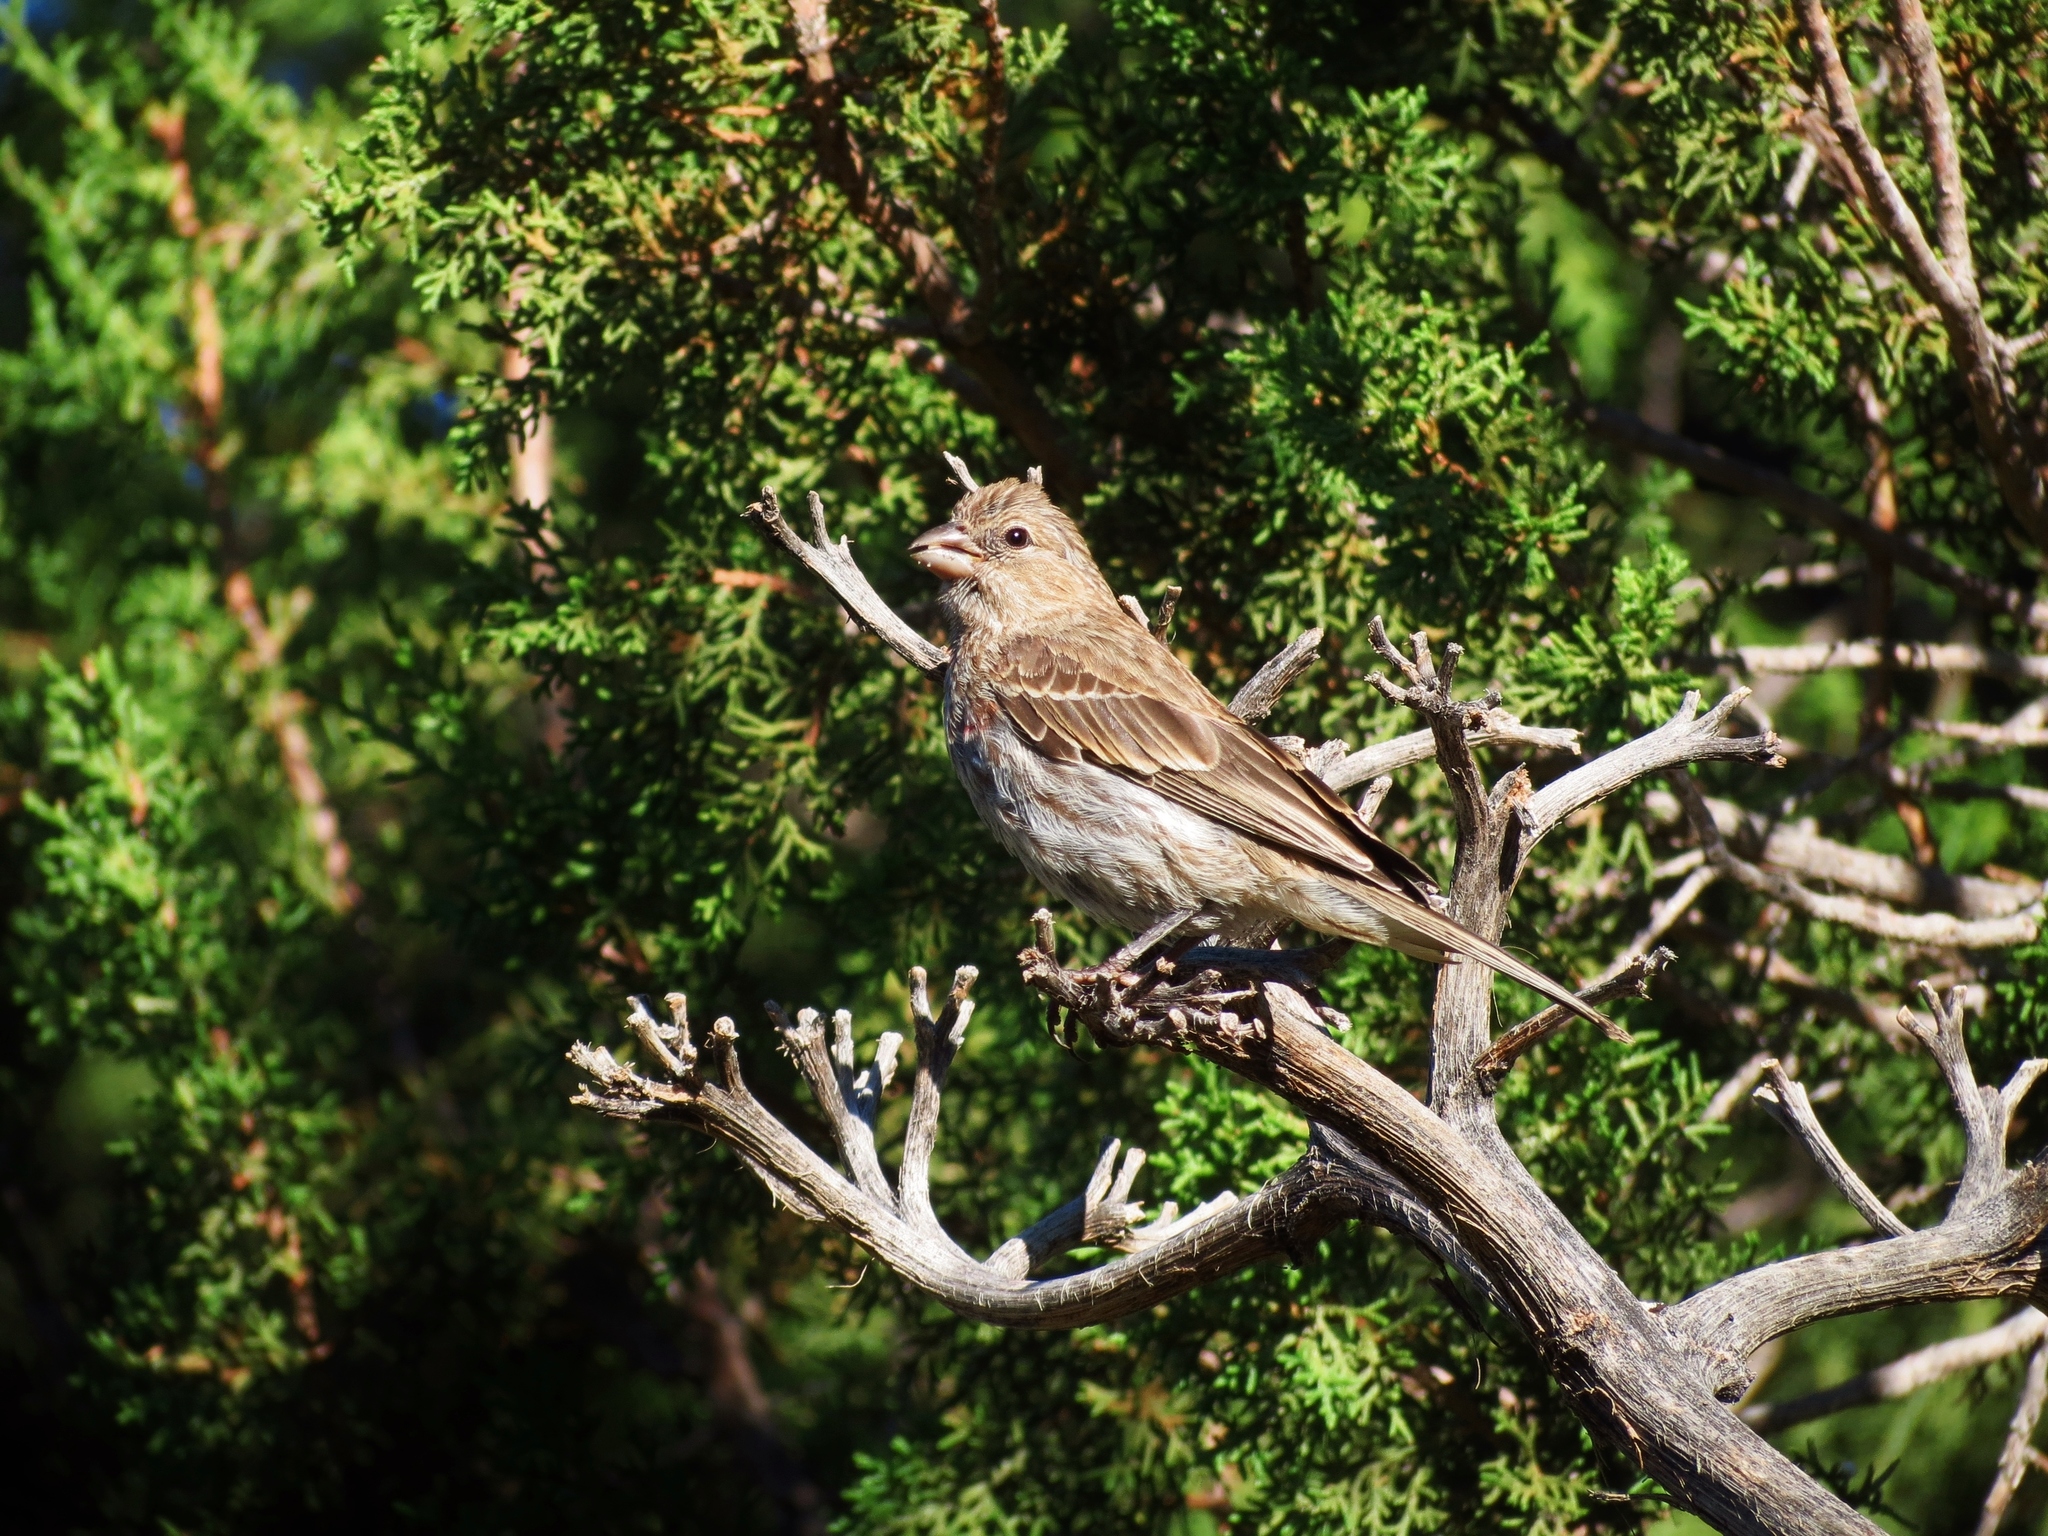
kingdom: Animalia
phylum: Chordata
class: Aves
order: Passeriformes
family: Fringillidae
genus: Haemorhous
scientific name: Haemorhous mexicanus
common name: House finch
